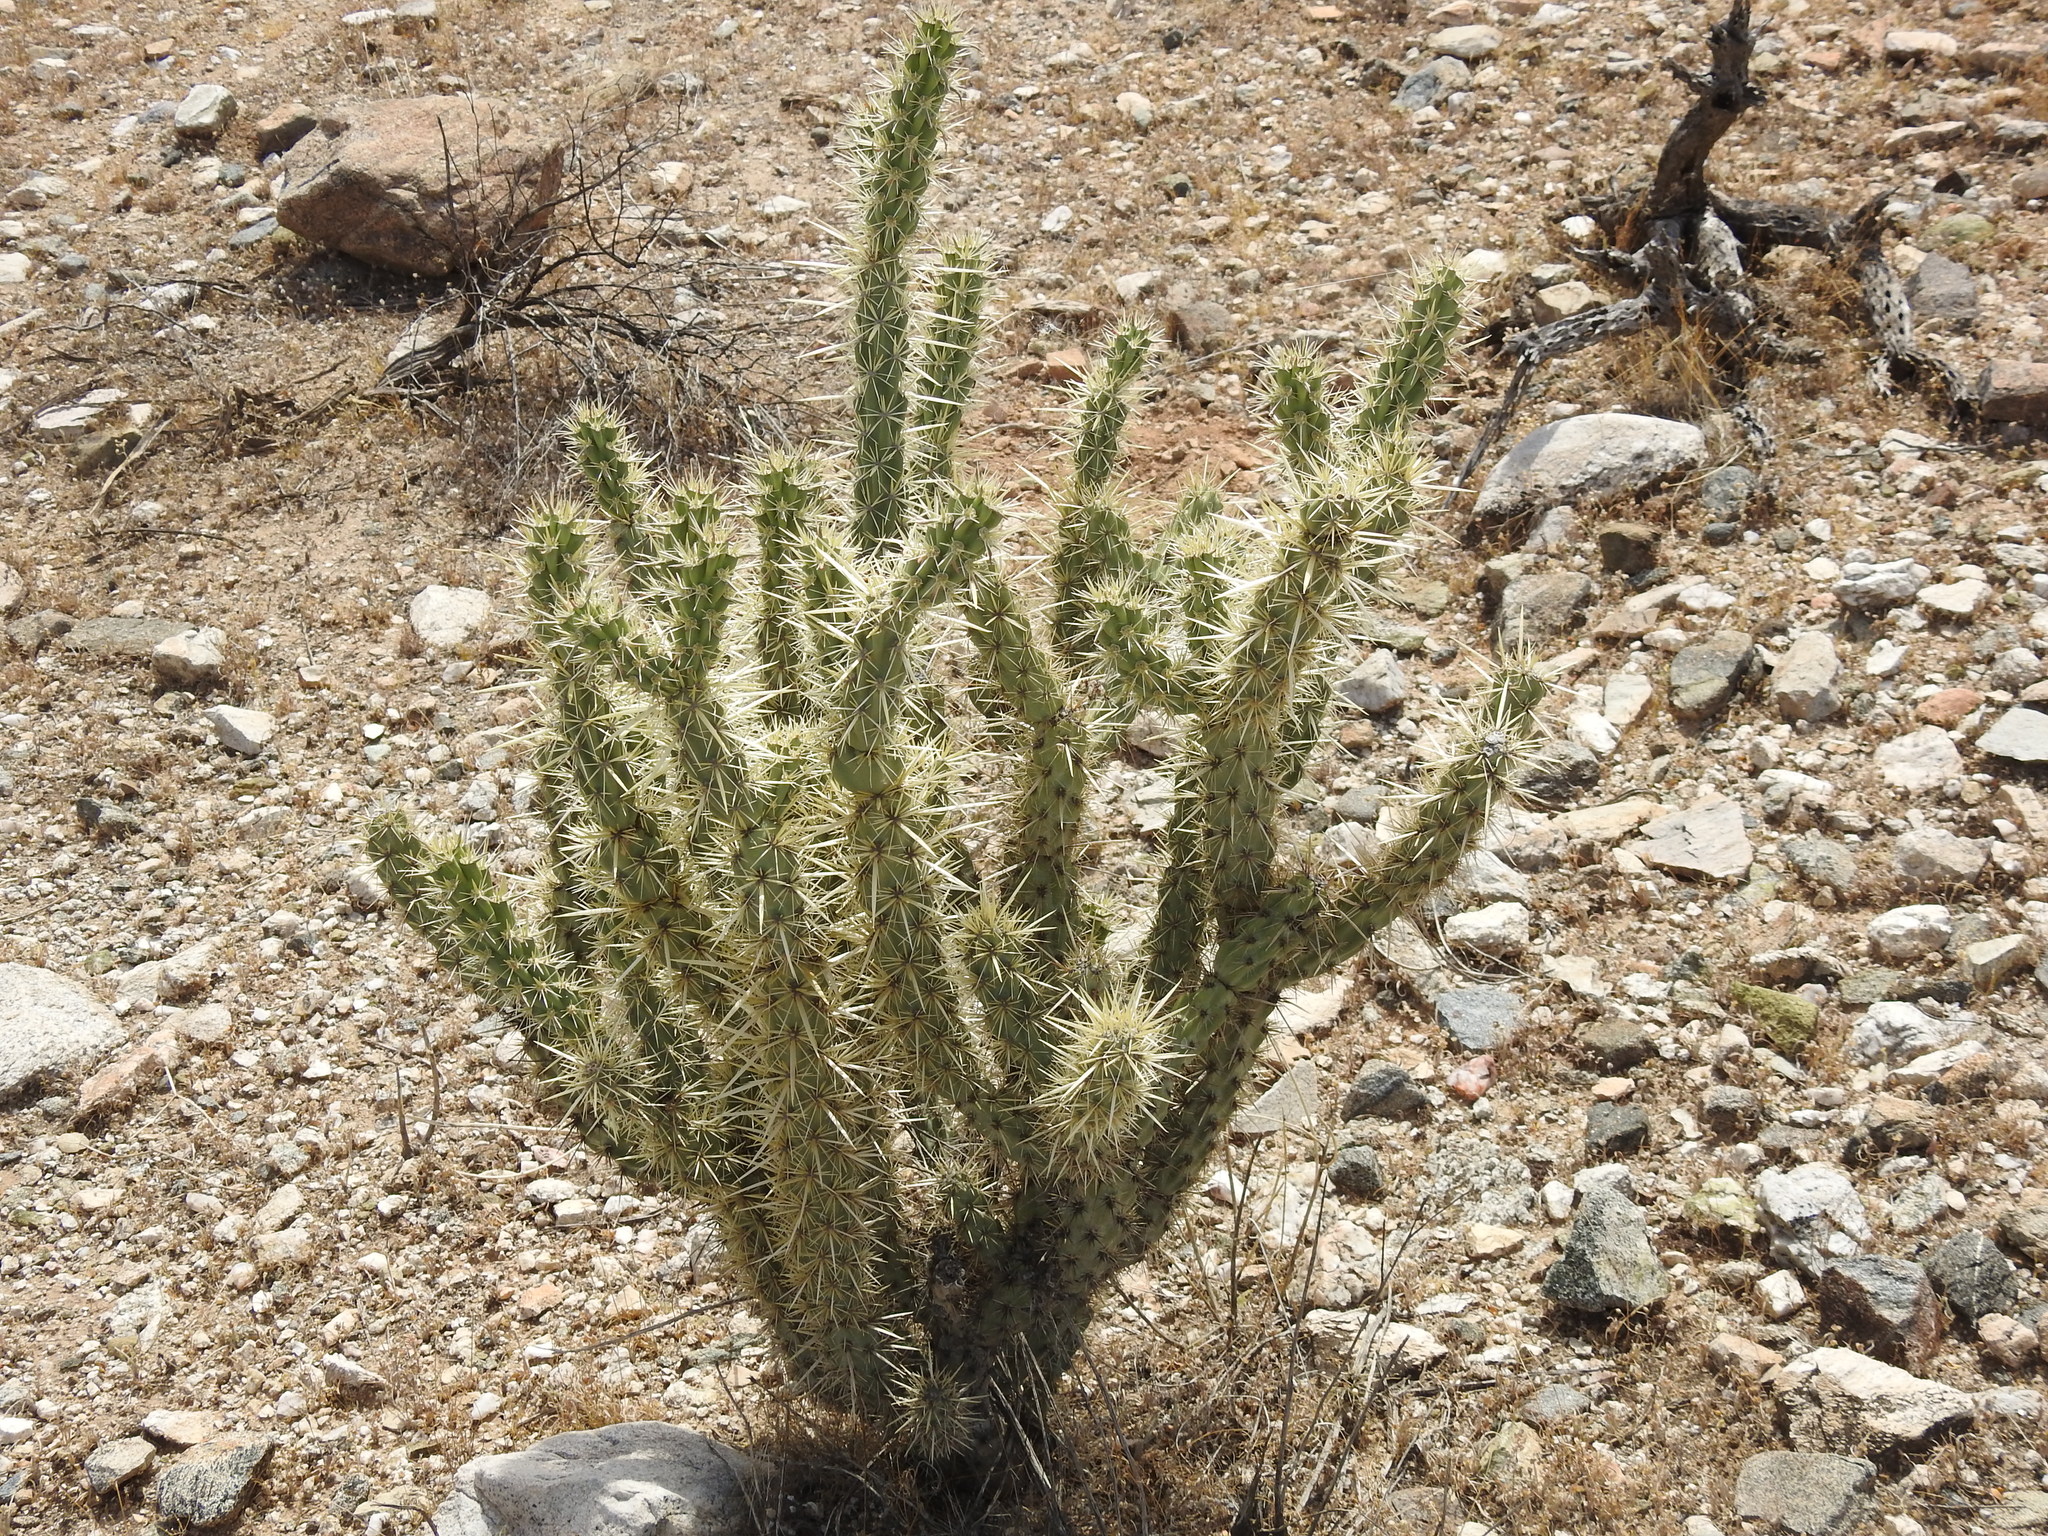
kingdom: Plantae
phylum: Tracheophyta
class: Magnoliopsida
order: Caryophyllales
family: Cactaceae
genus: Cylindropuntia
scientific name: Cylindropuntia acanthocarpa
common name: Buckhorn cholla
